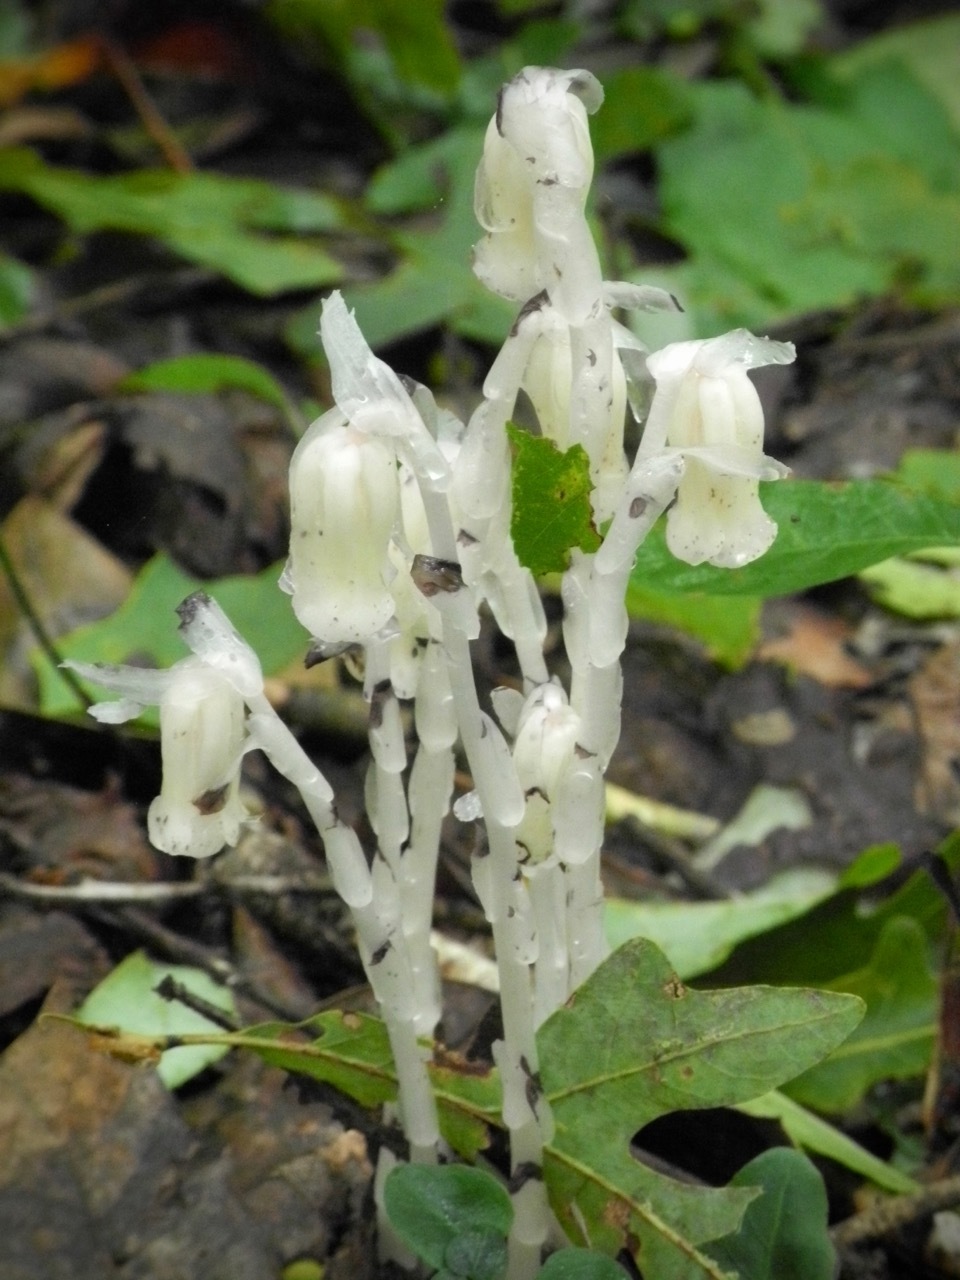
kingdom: Plantae
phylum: Tracheophyta
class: Magnoliopsida
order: Ericales
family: Ericaceae
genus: Monotropa
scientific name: Monotropa uniflora
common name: Convulsion root
